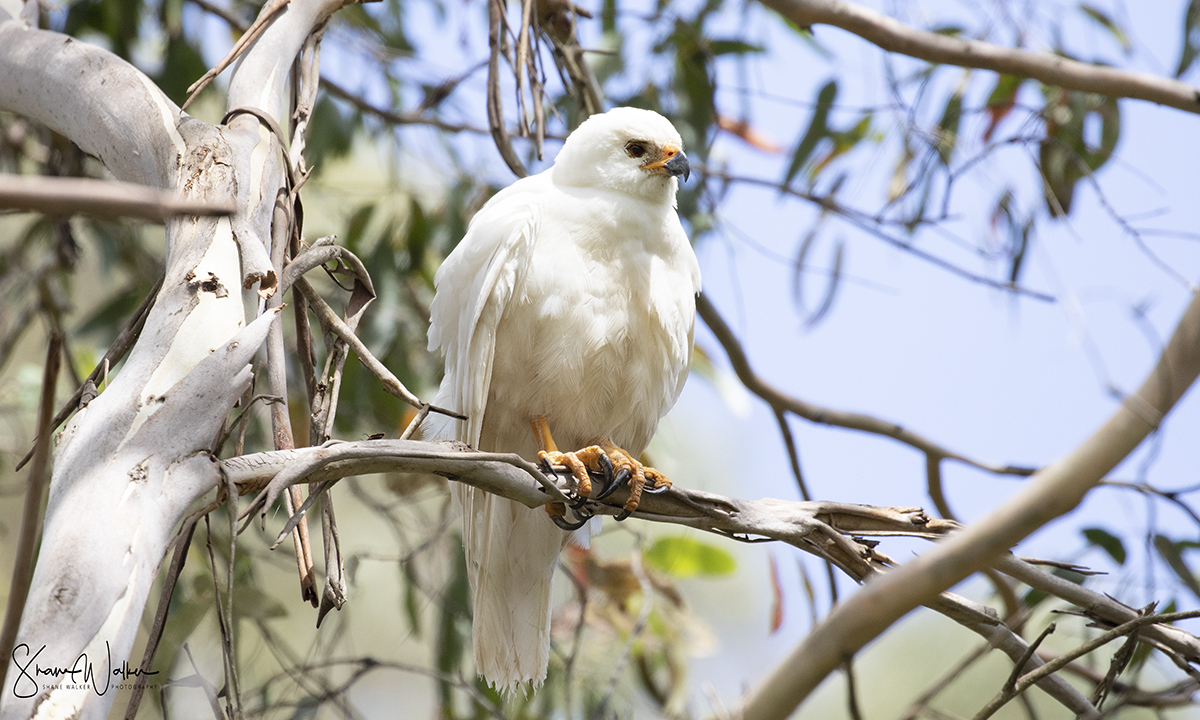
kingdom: Animalia
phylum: Chordata
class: Aves
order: Accipitriformes
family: Accipitridae
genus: Accipiter
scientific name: Accipiter novaehollandiae
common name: Grey goshawk
